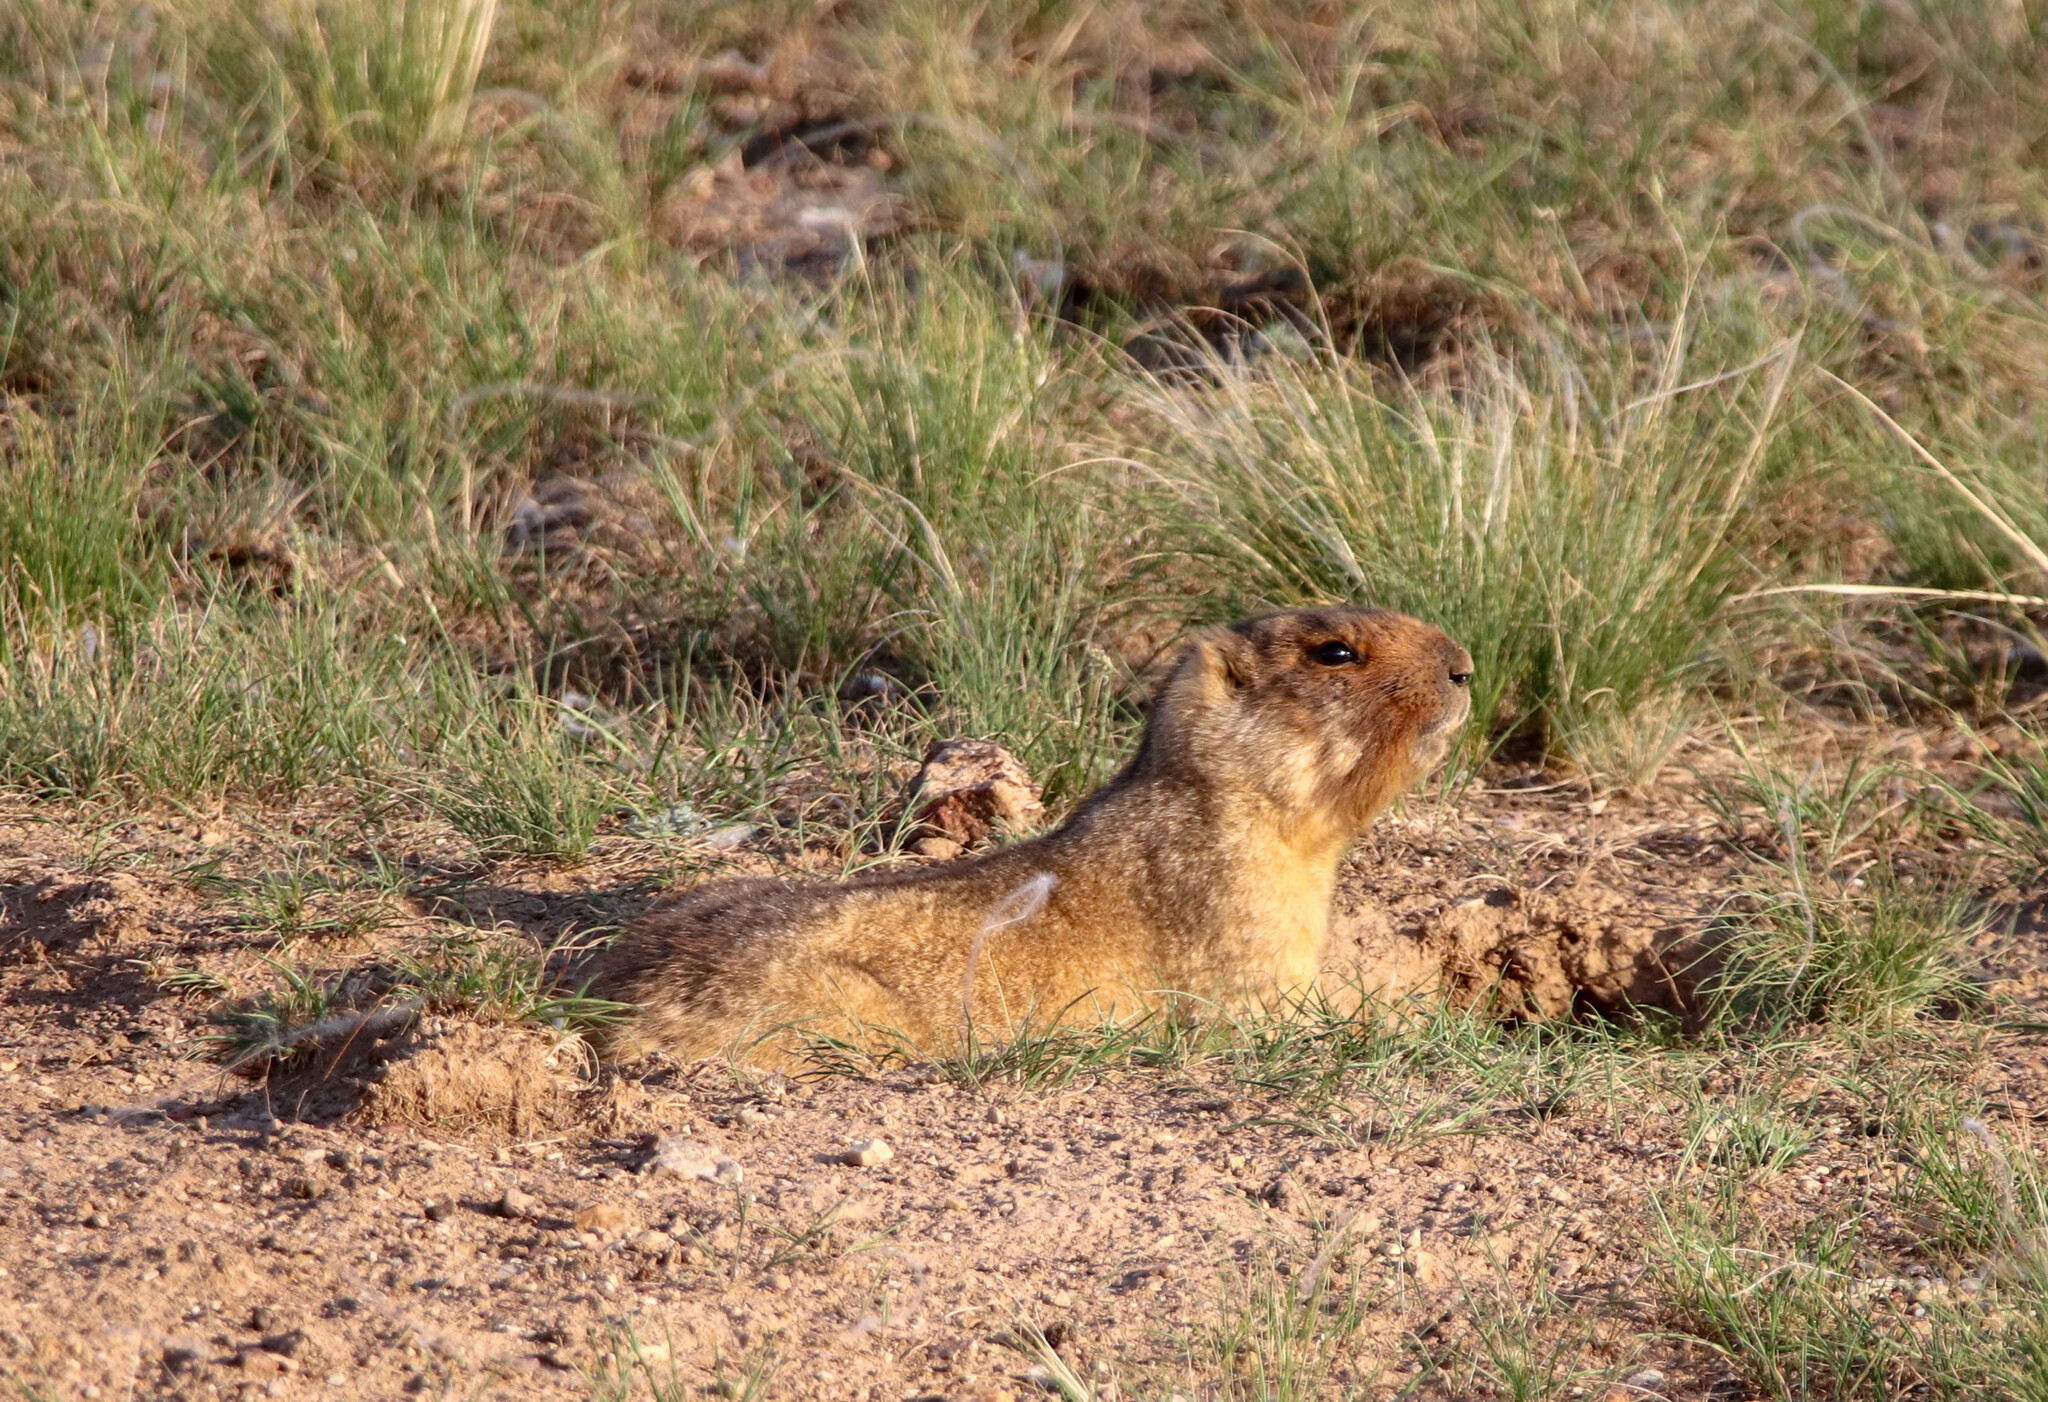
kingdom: Animalia
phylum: Chordata
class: Mammalia
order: Rodentia
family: Sciuridae
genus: Marmota
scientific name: Marmota bobak
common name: Bobak marmot
